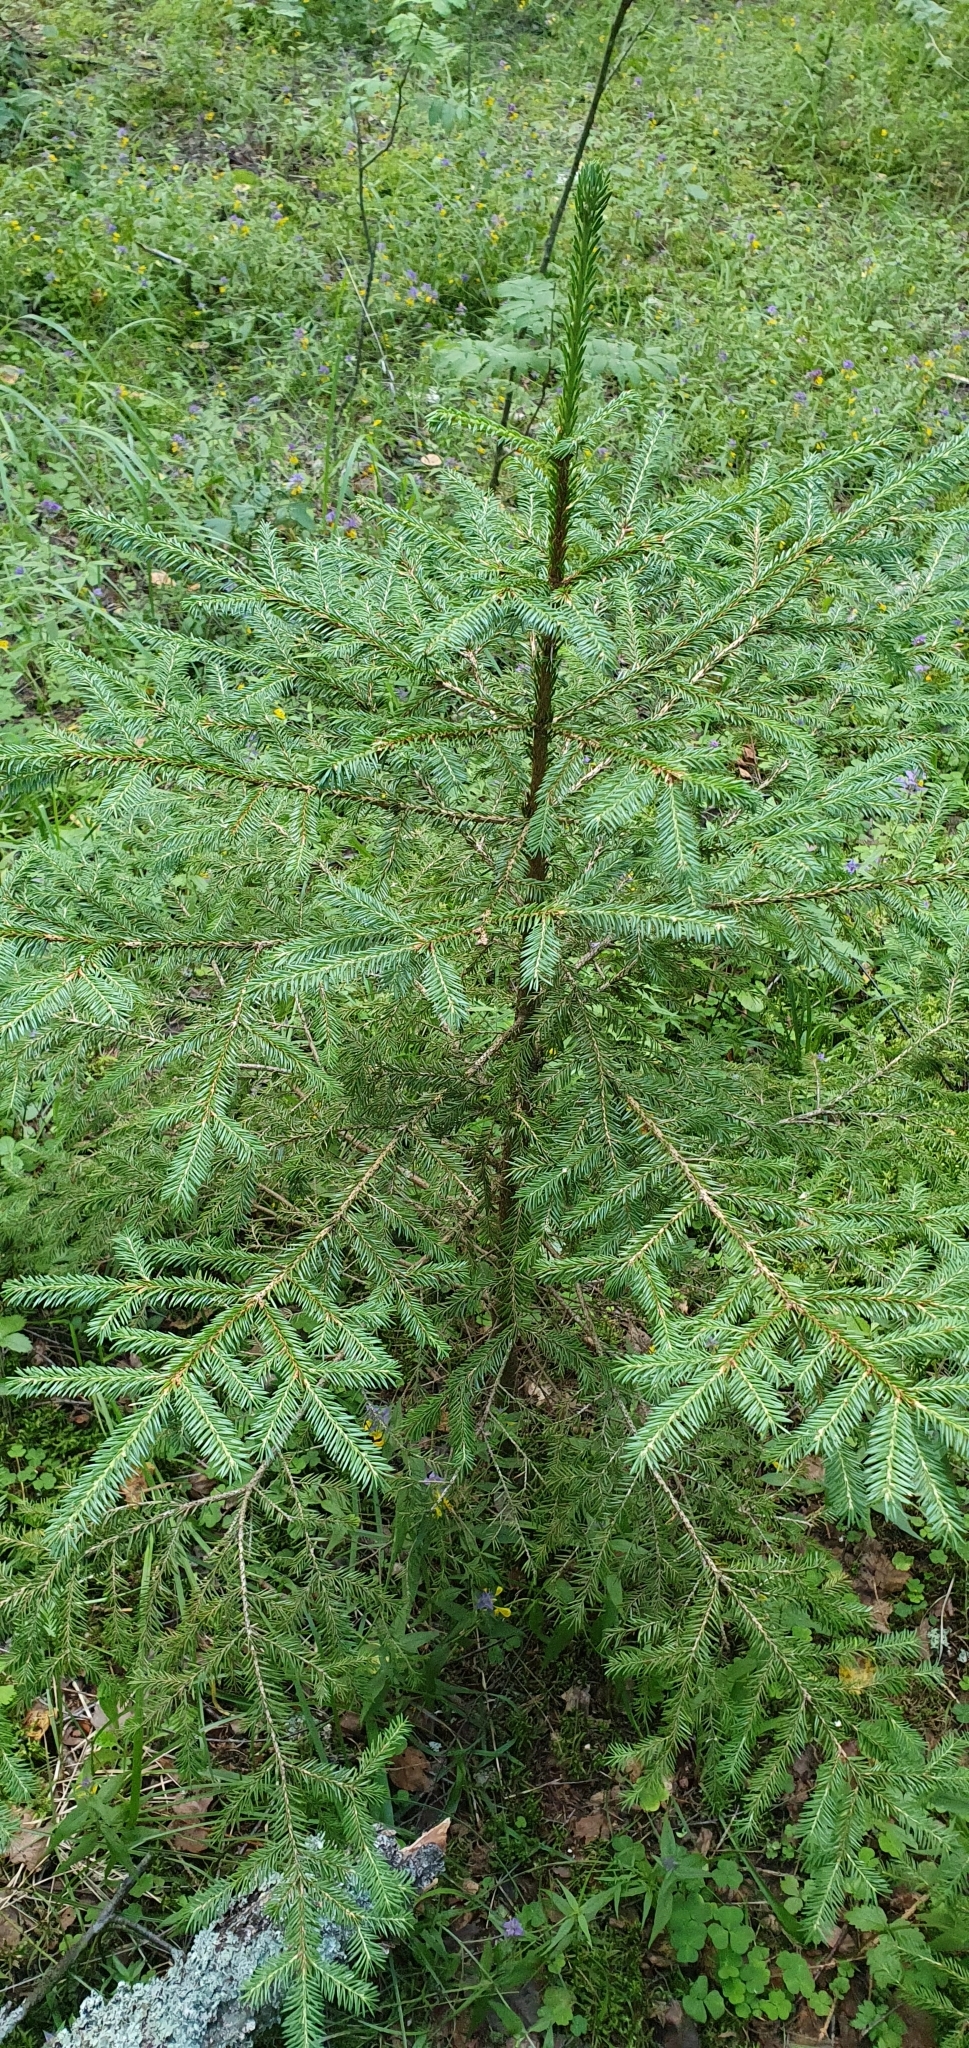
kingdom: Plantae
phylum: Tracheophyta
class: Pinopsida
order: Pinales
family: Pinaceae
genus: Picea
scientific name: Picea abies
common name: Norway spruce
